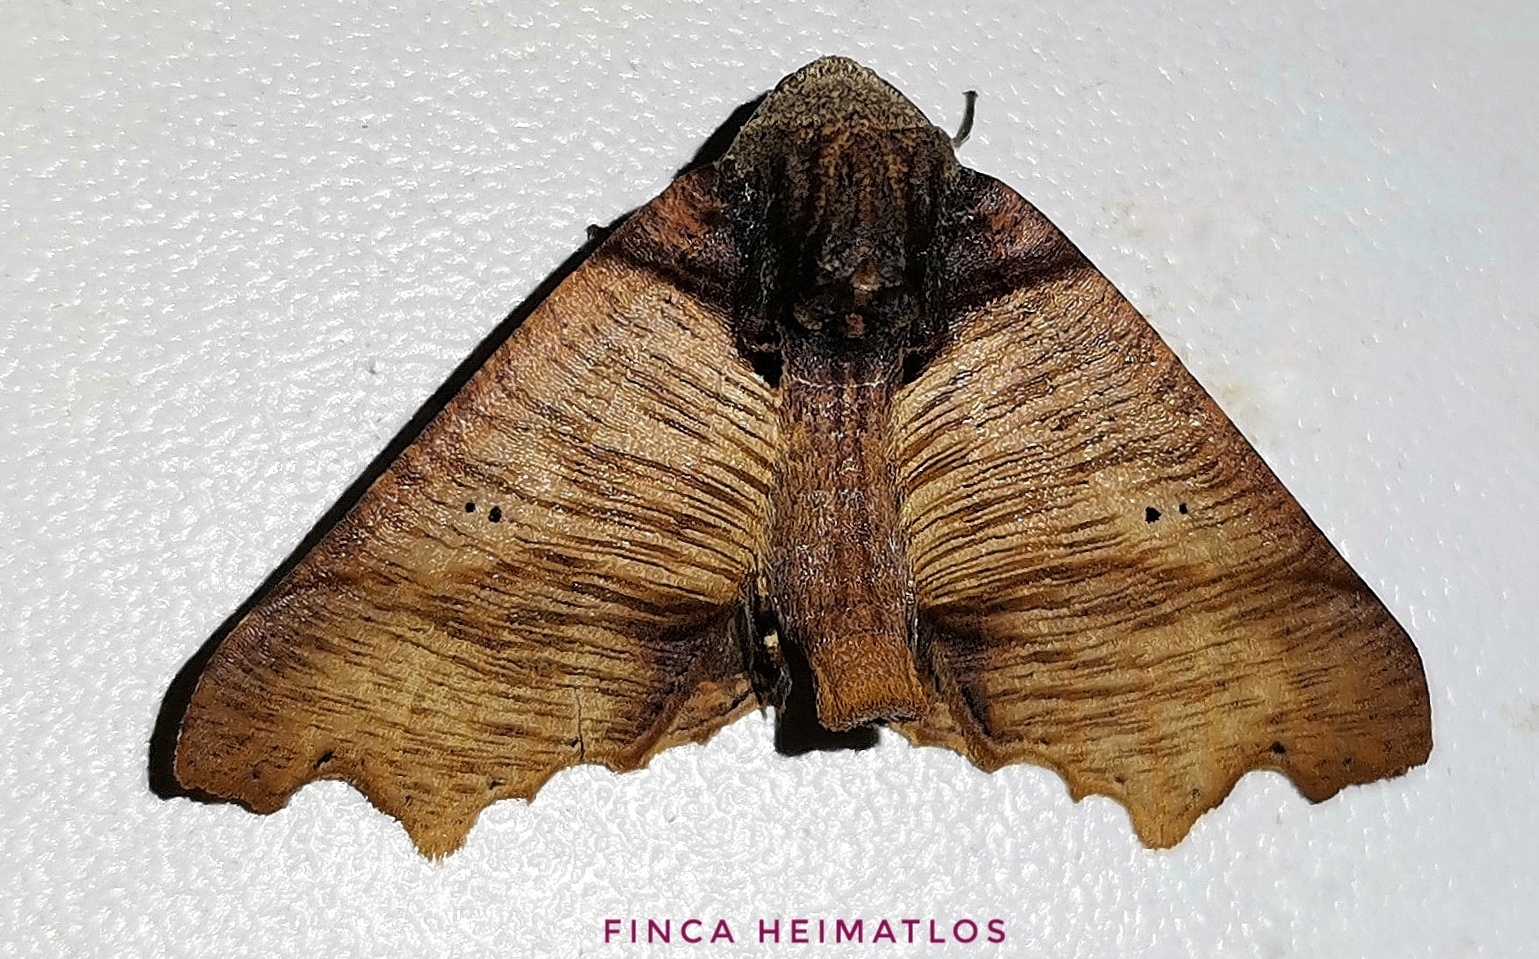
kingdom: Animalia
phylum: Arthropoda
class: Insecta
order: Lepidoptera
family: Geometridae
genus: Pero
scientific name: Pero polygonaria
